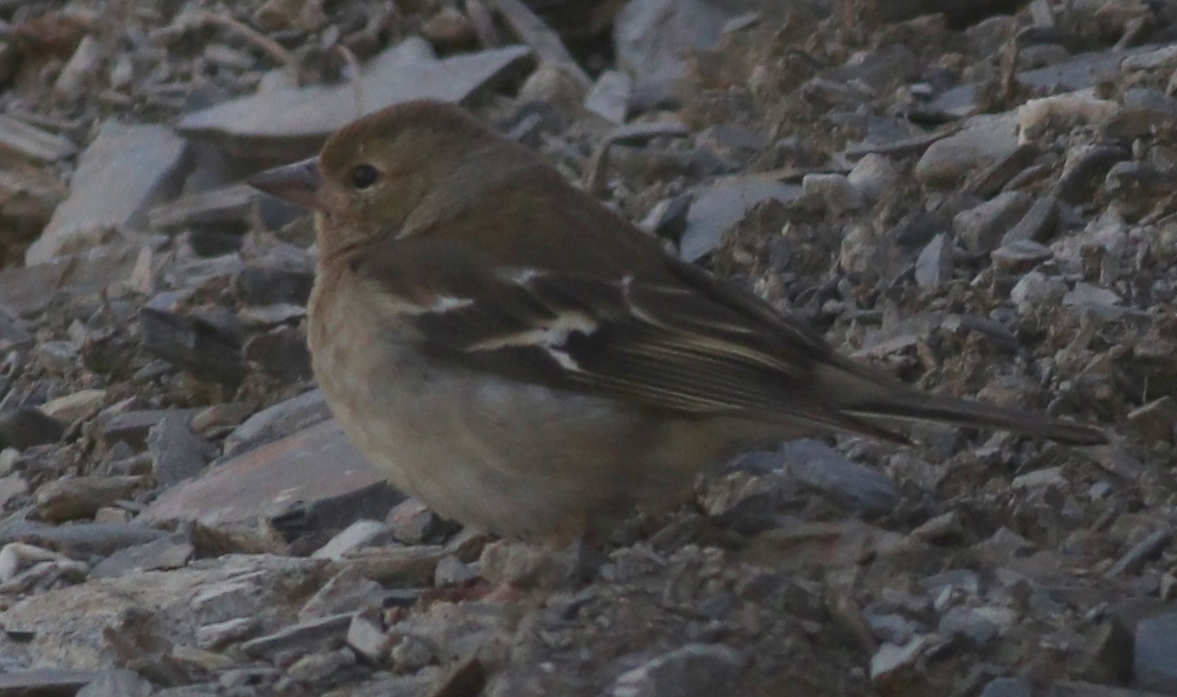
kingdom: Animalia
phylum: Chordata
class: Aves
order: Passeriformes
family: Fringillidae
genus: Fringilla
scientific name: Fringilla coelebs
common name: Common chaffinch
